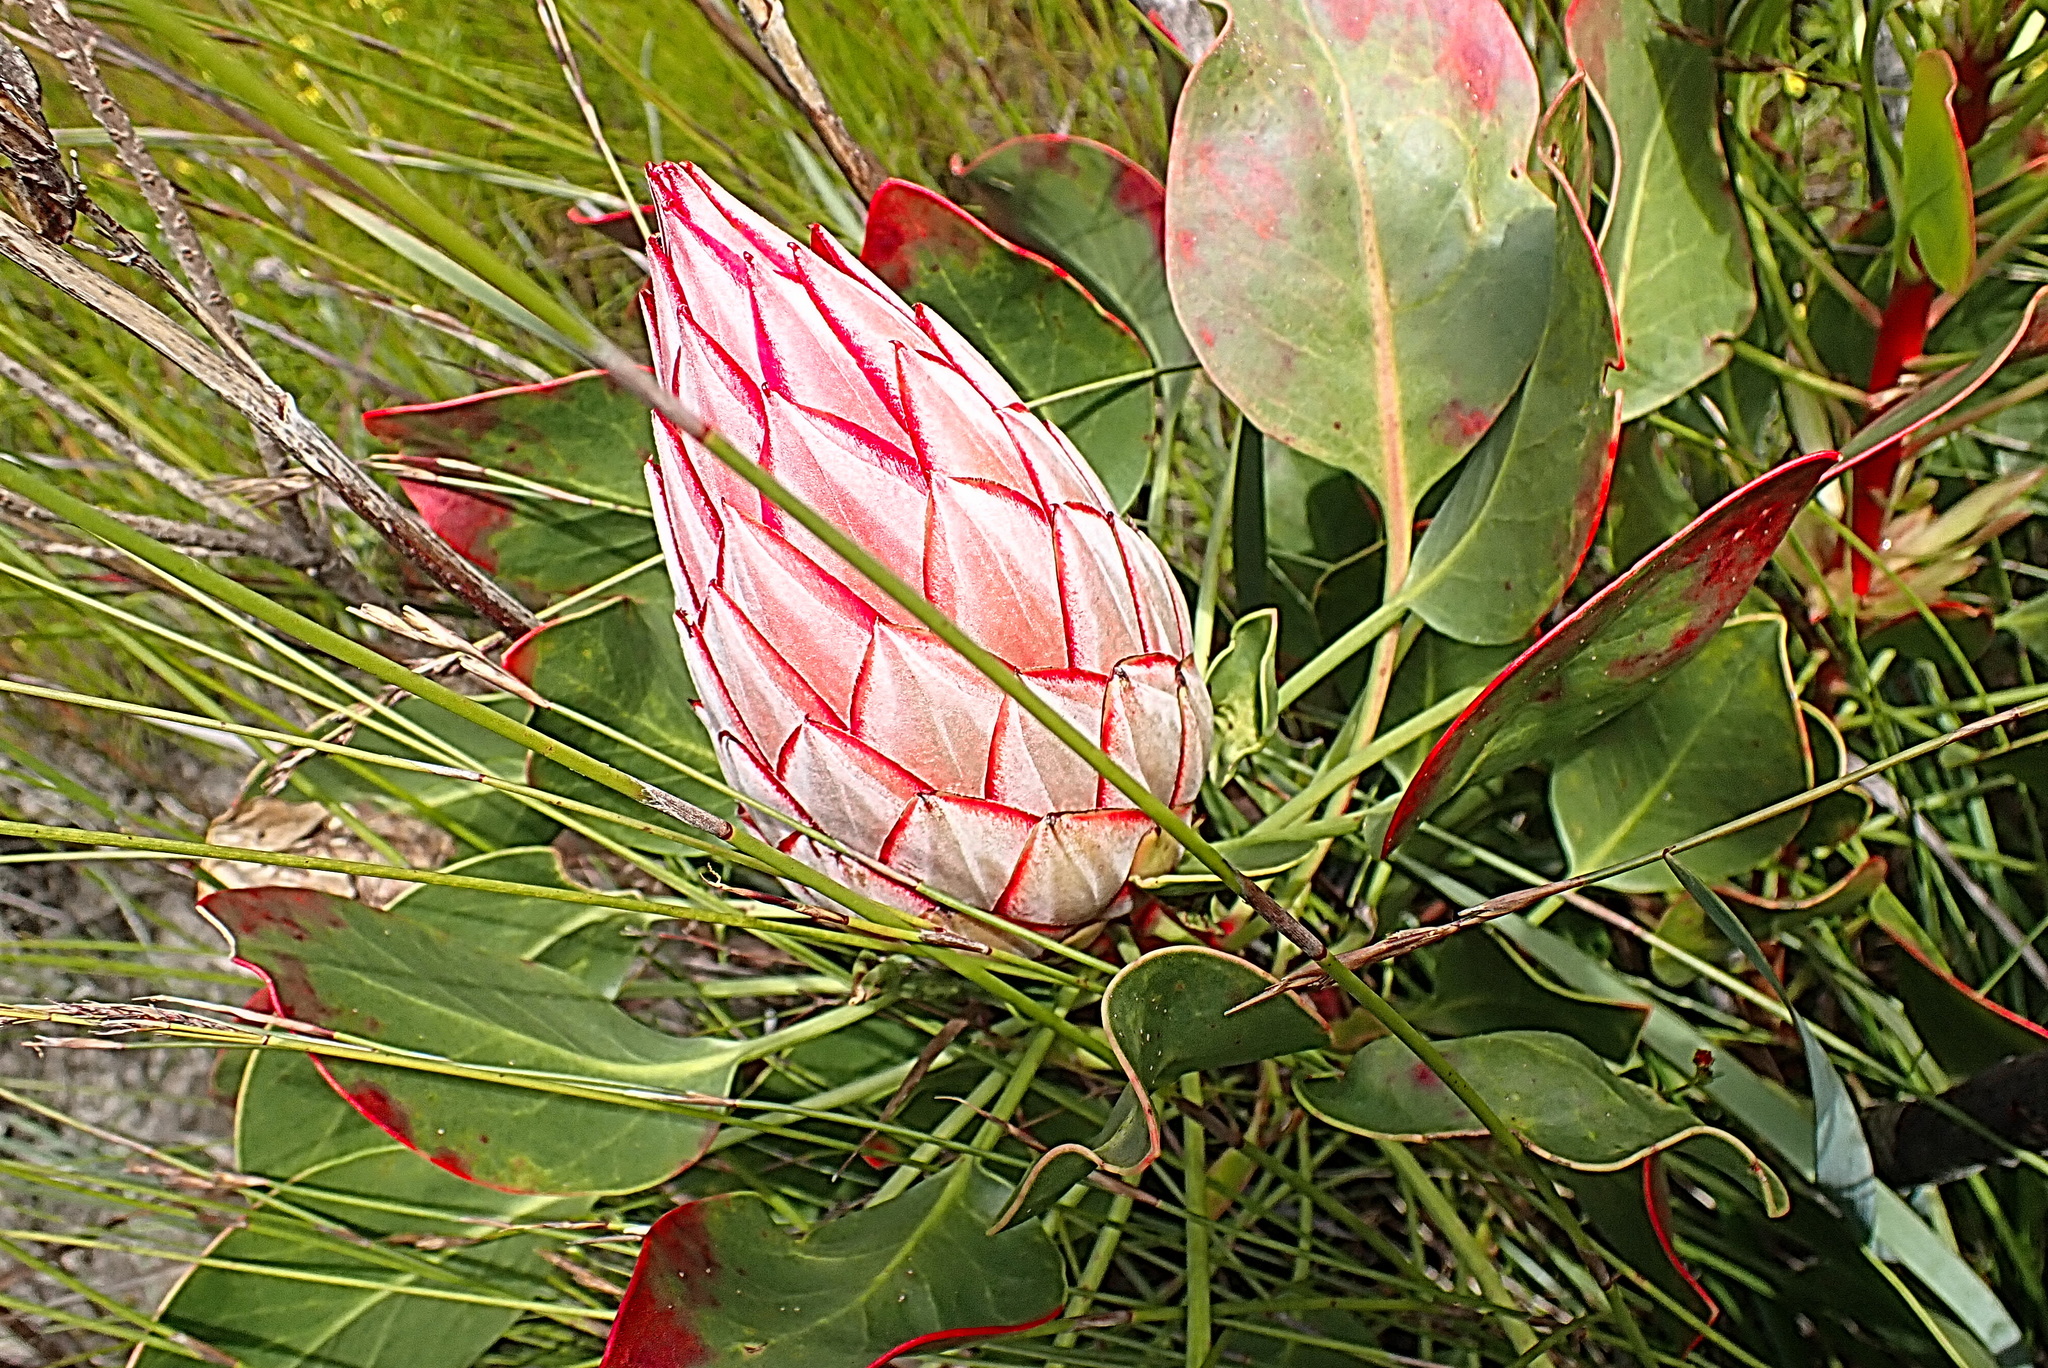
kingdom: Plantae
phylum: Tracheophyta
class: Magnoliopsida
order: Proteales
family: Proteaceae
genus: Protea
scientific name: Protea cynaroides
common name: King protea
